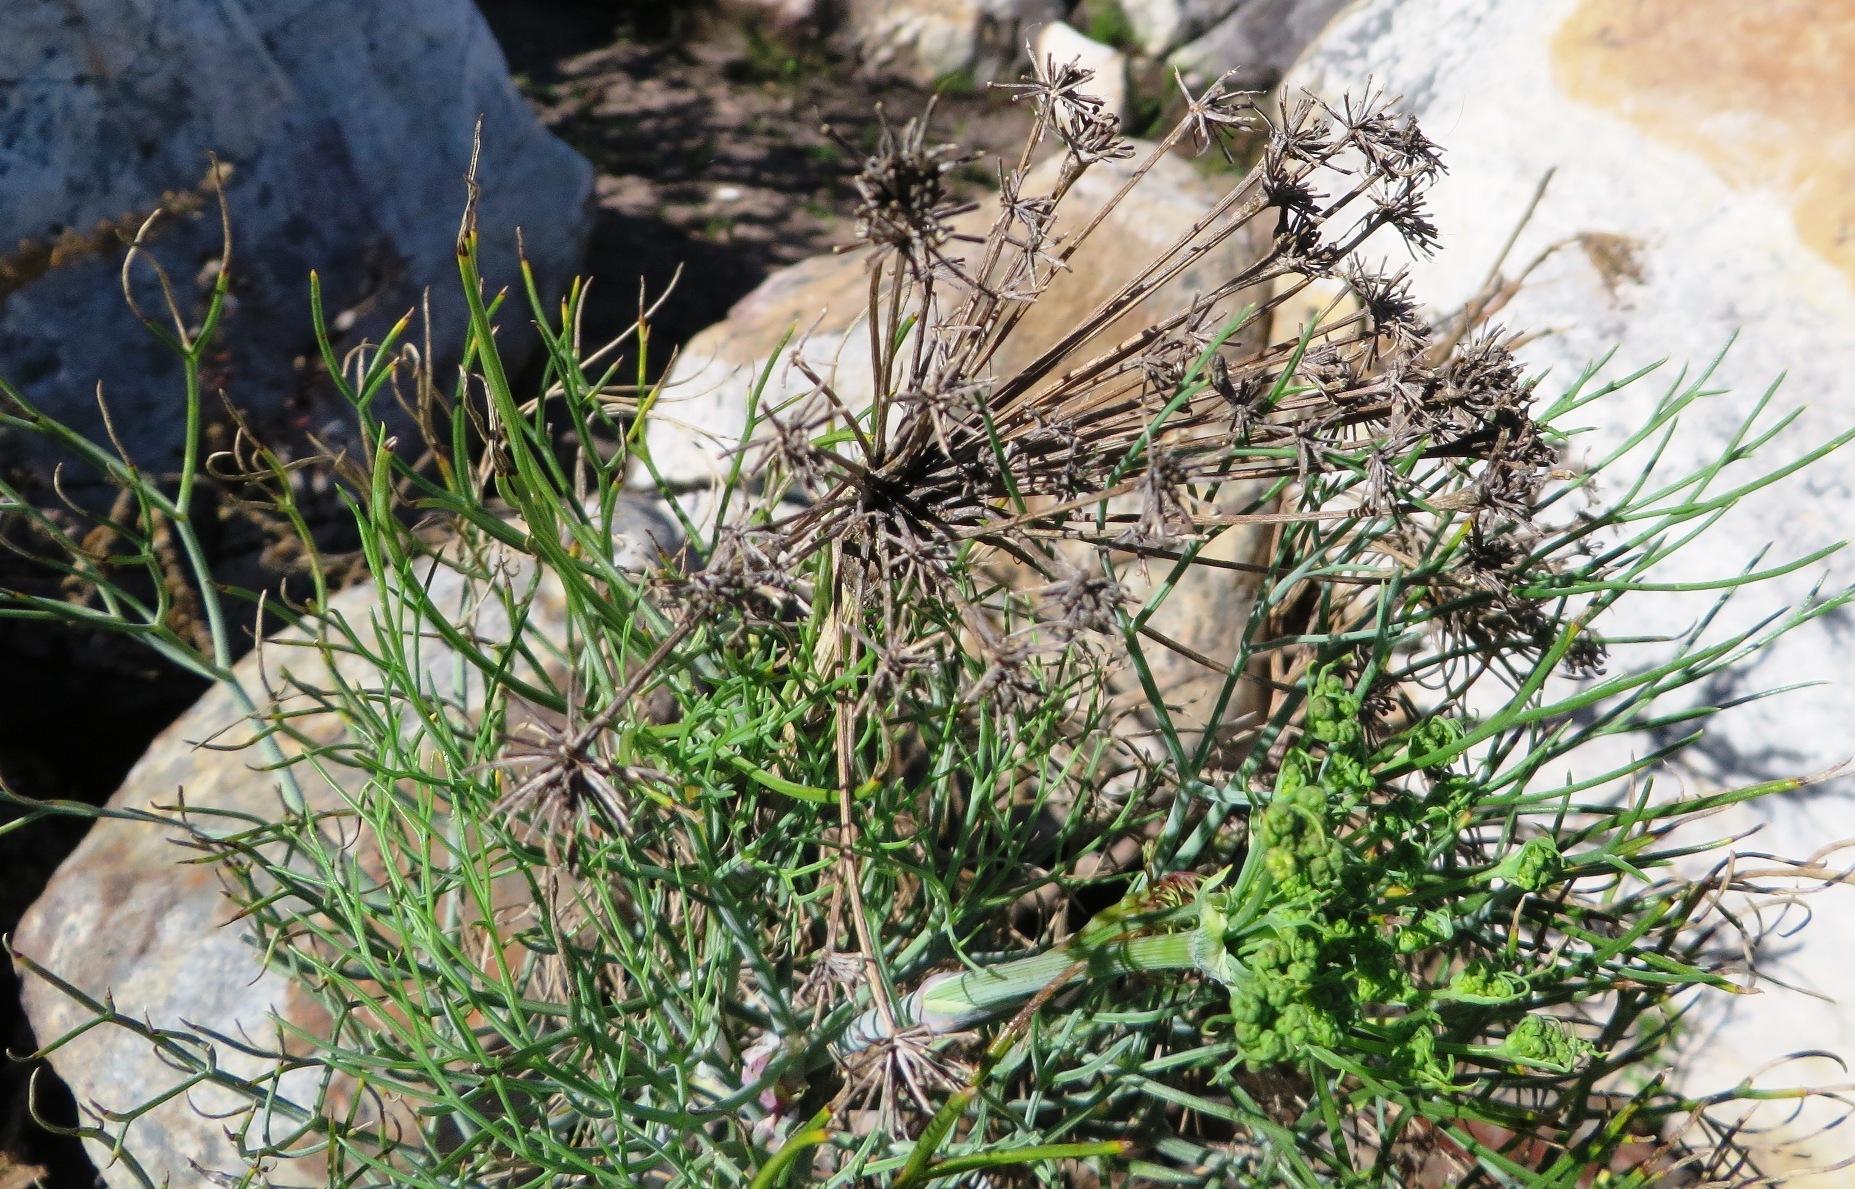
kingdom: Plantae
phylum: Tracheophyta
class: Magnoliopsida
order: Apiales
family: Apiaceae
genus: Notobubon
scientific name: Notobubon capense
